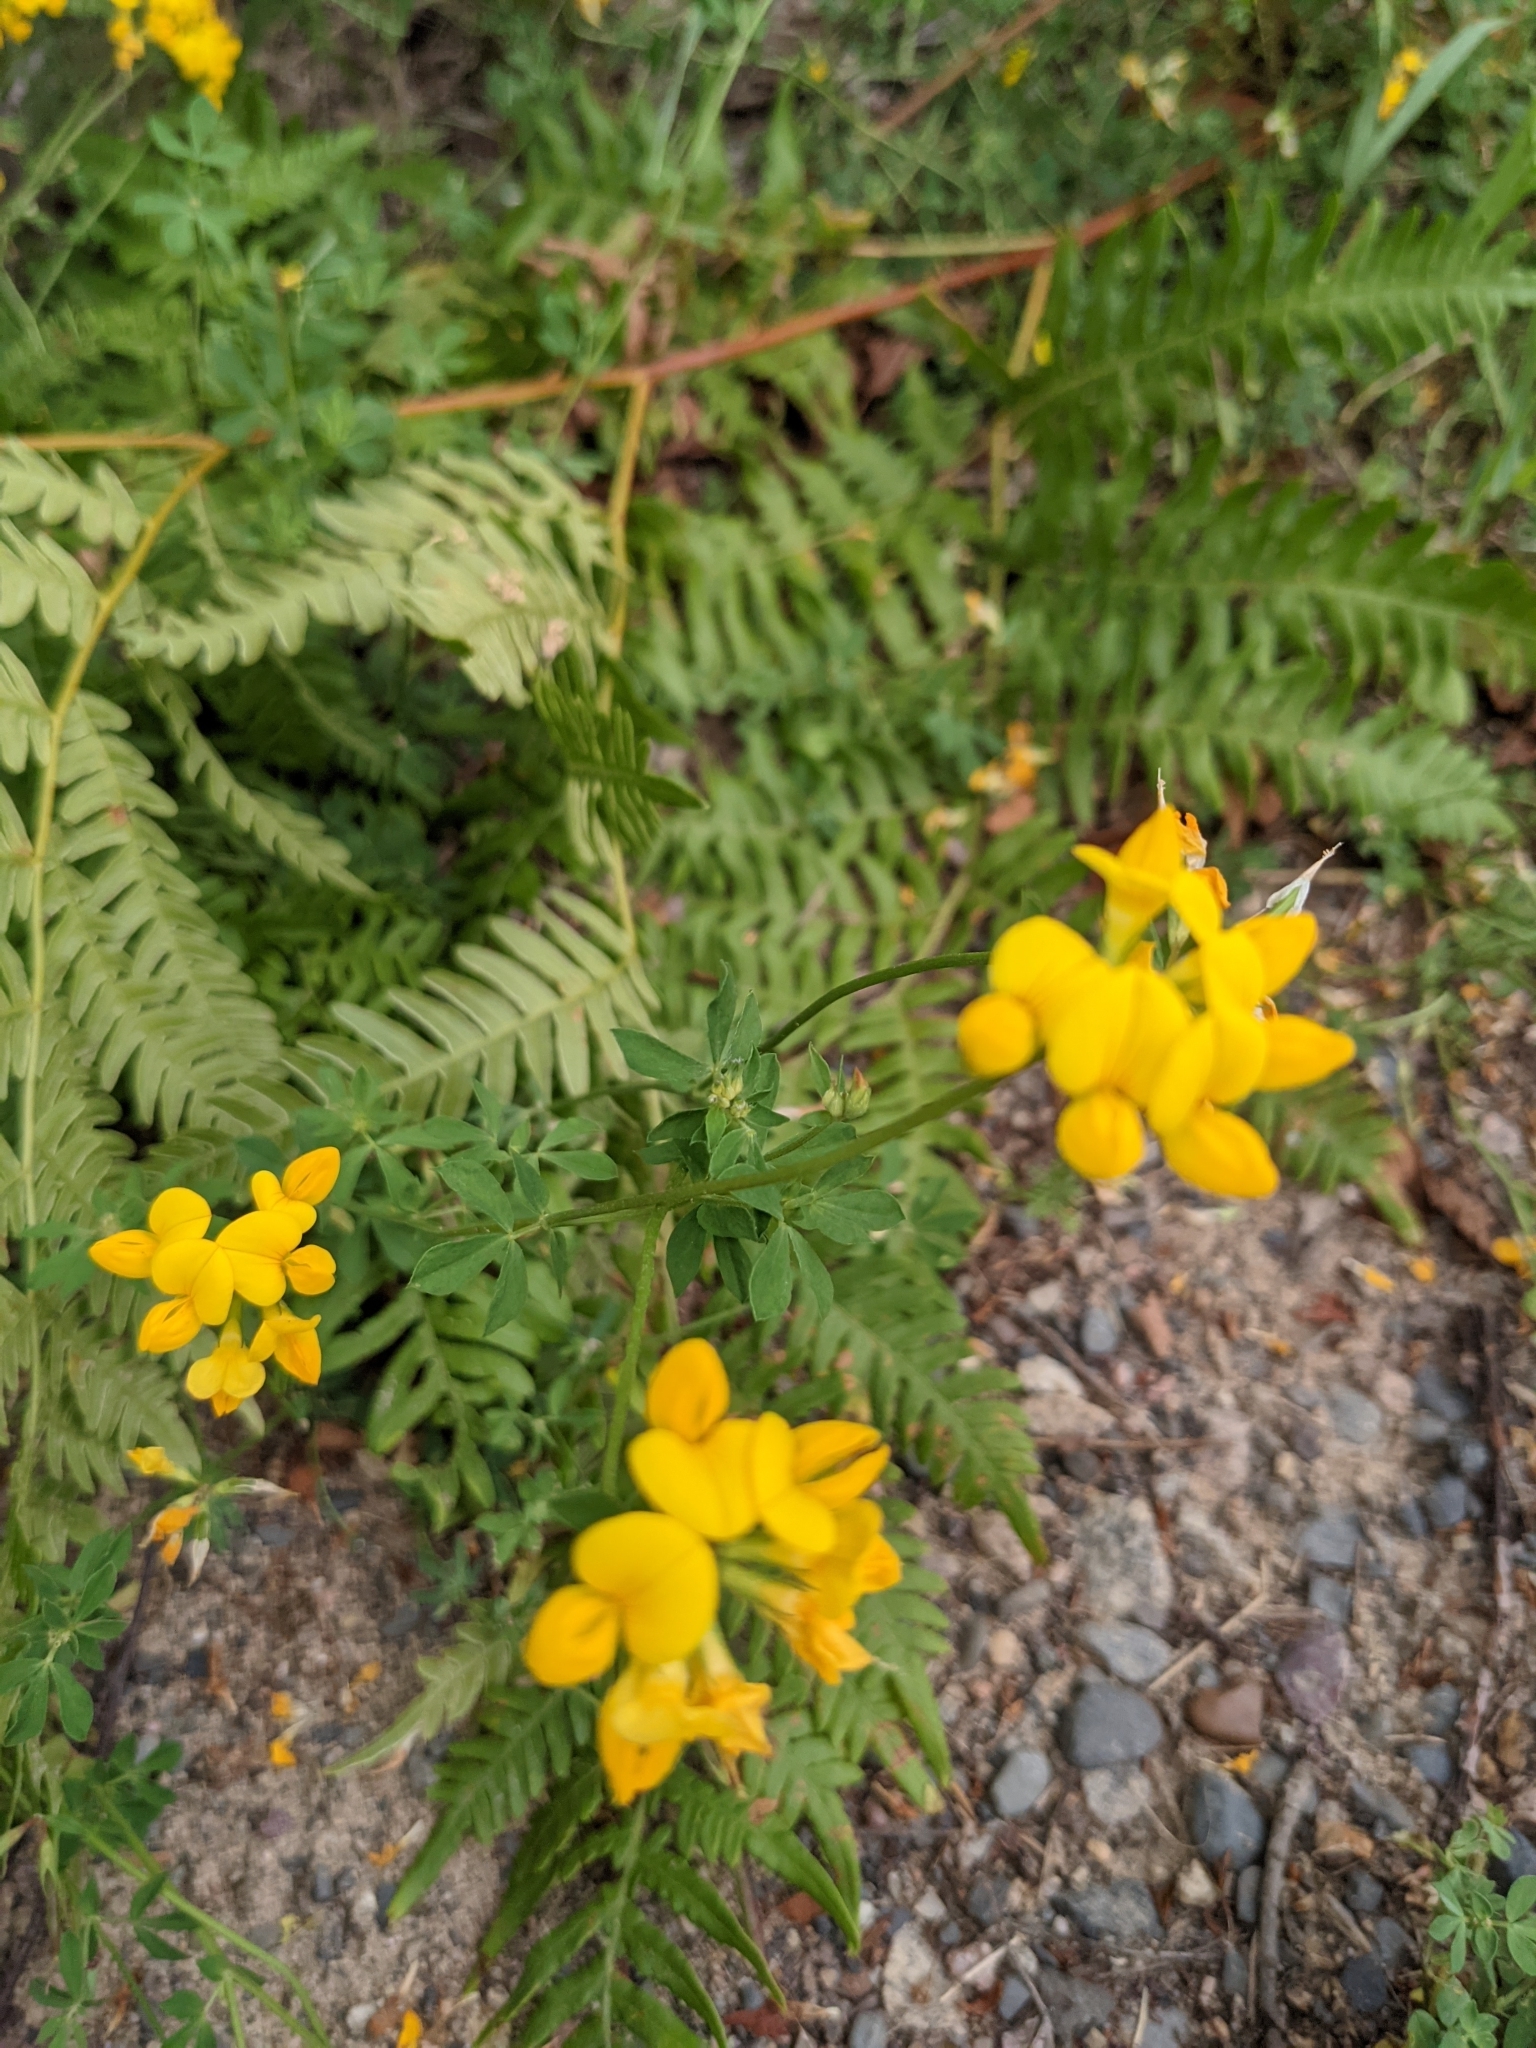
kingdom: Plantae
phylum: Tracheophyta
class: Magnoliopsida
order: Fabales
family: Fabaceae
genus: Lotus
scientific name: Lotus corniculatus
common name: Common bird's-foot-trefoil
